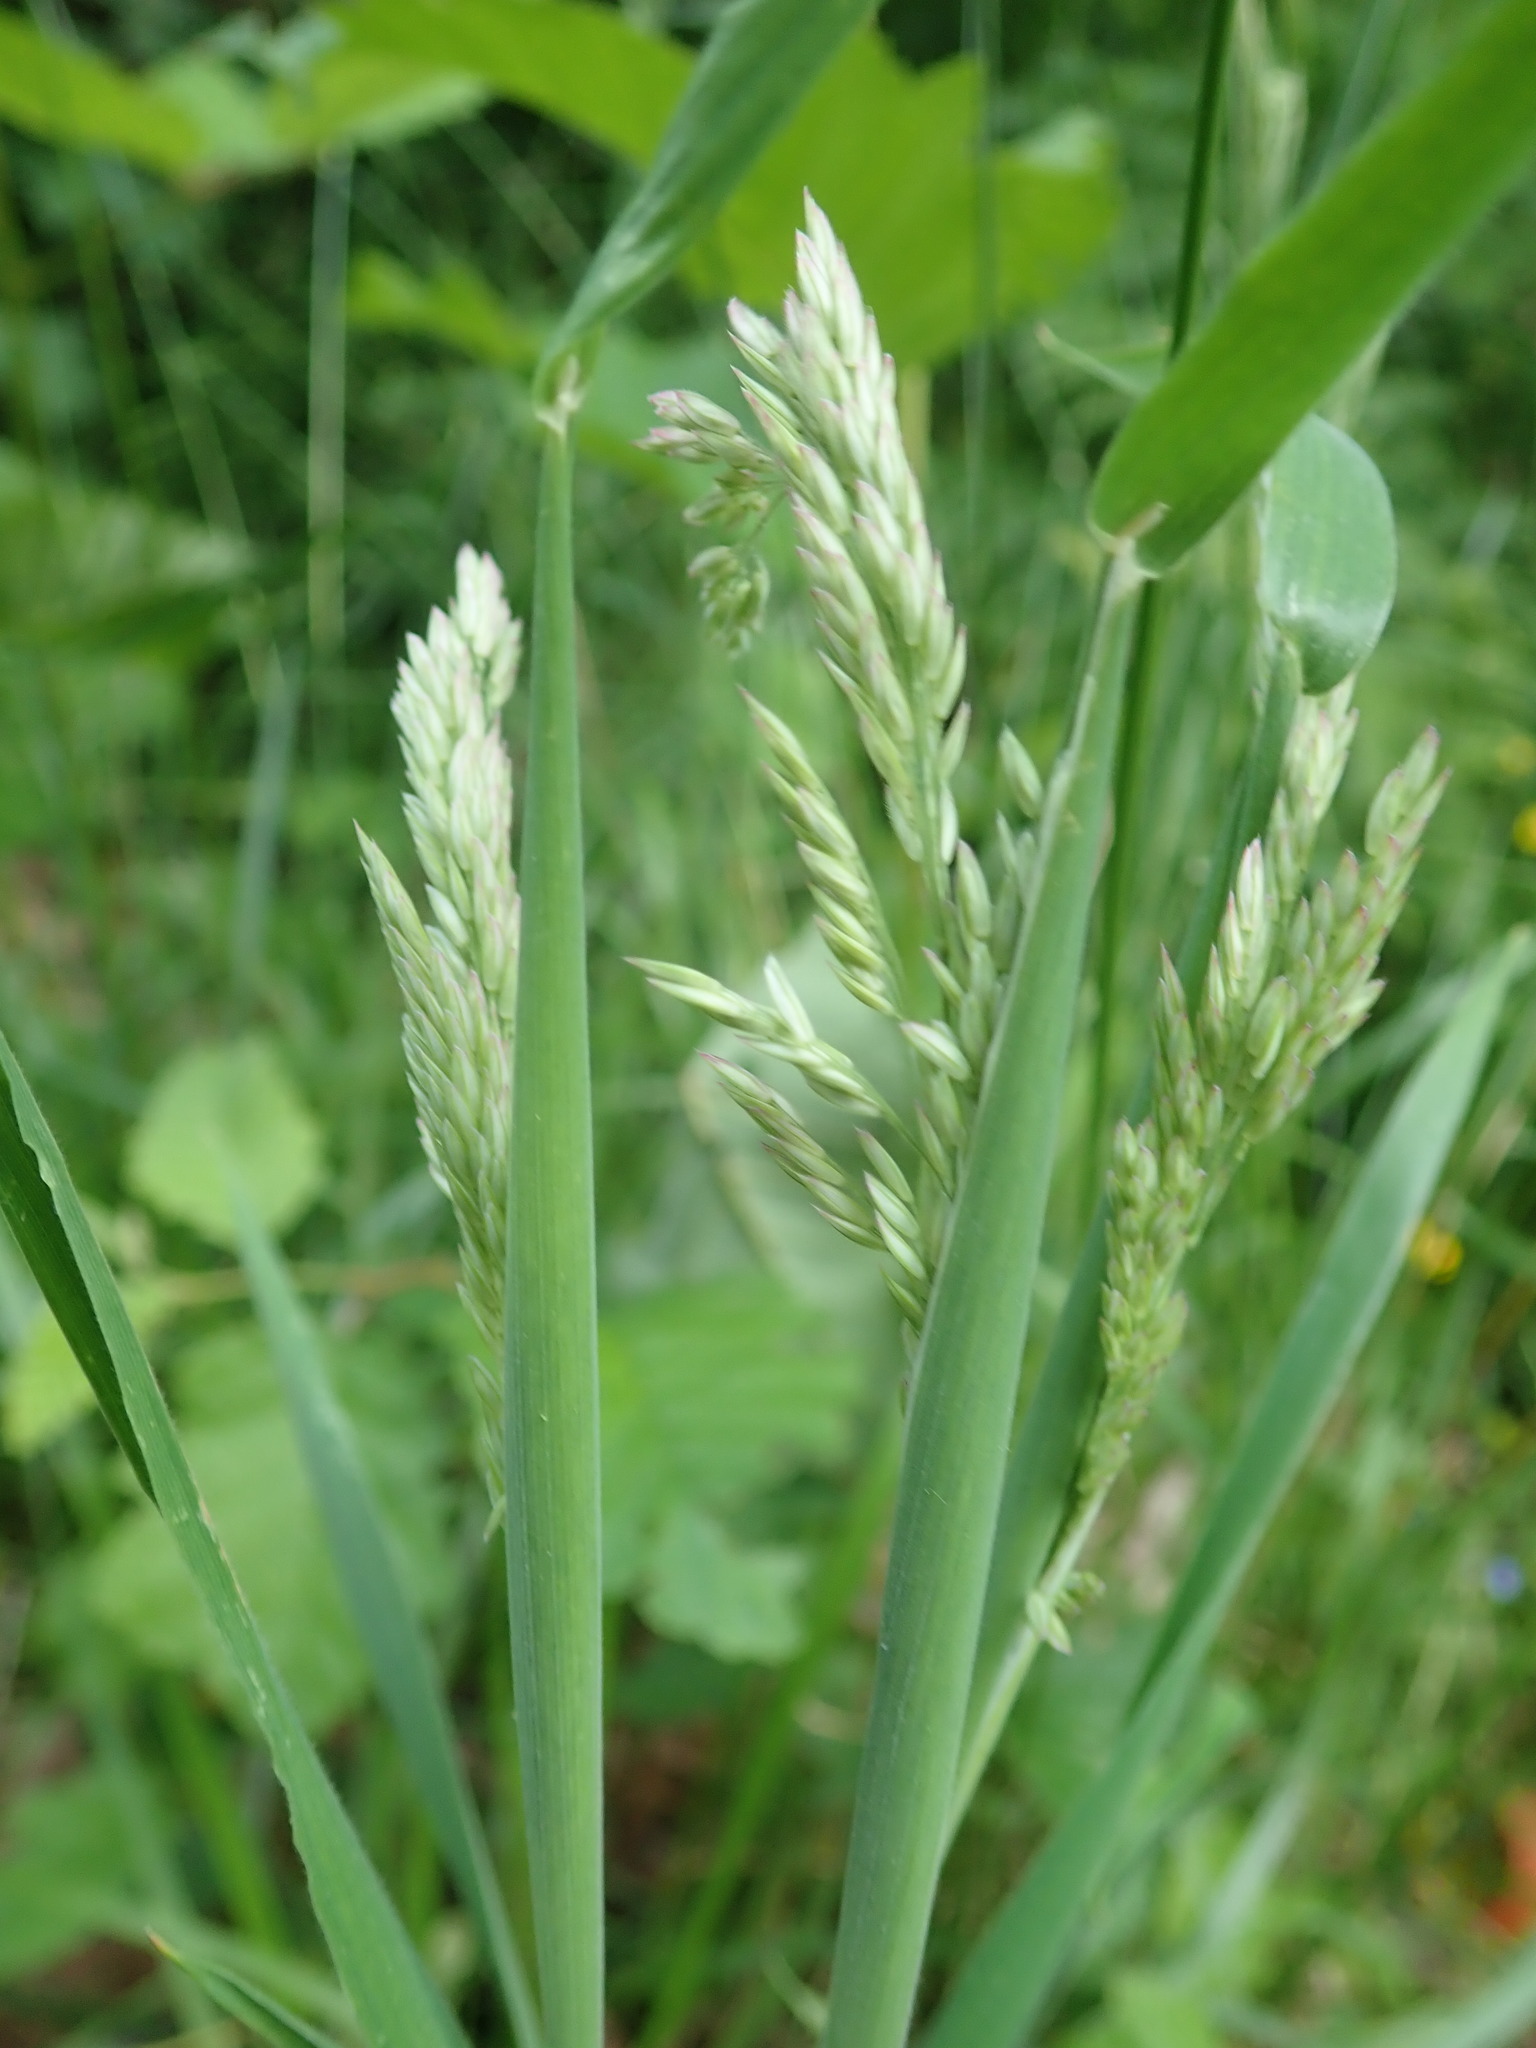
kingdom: Plantae
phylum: Tracheophyta
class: Liliopsida
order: Poales
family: Poaceae
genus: Holcus
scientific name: Holcus lanatus
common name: Yorkshire-fog
